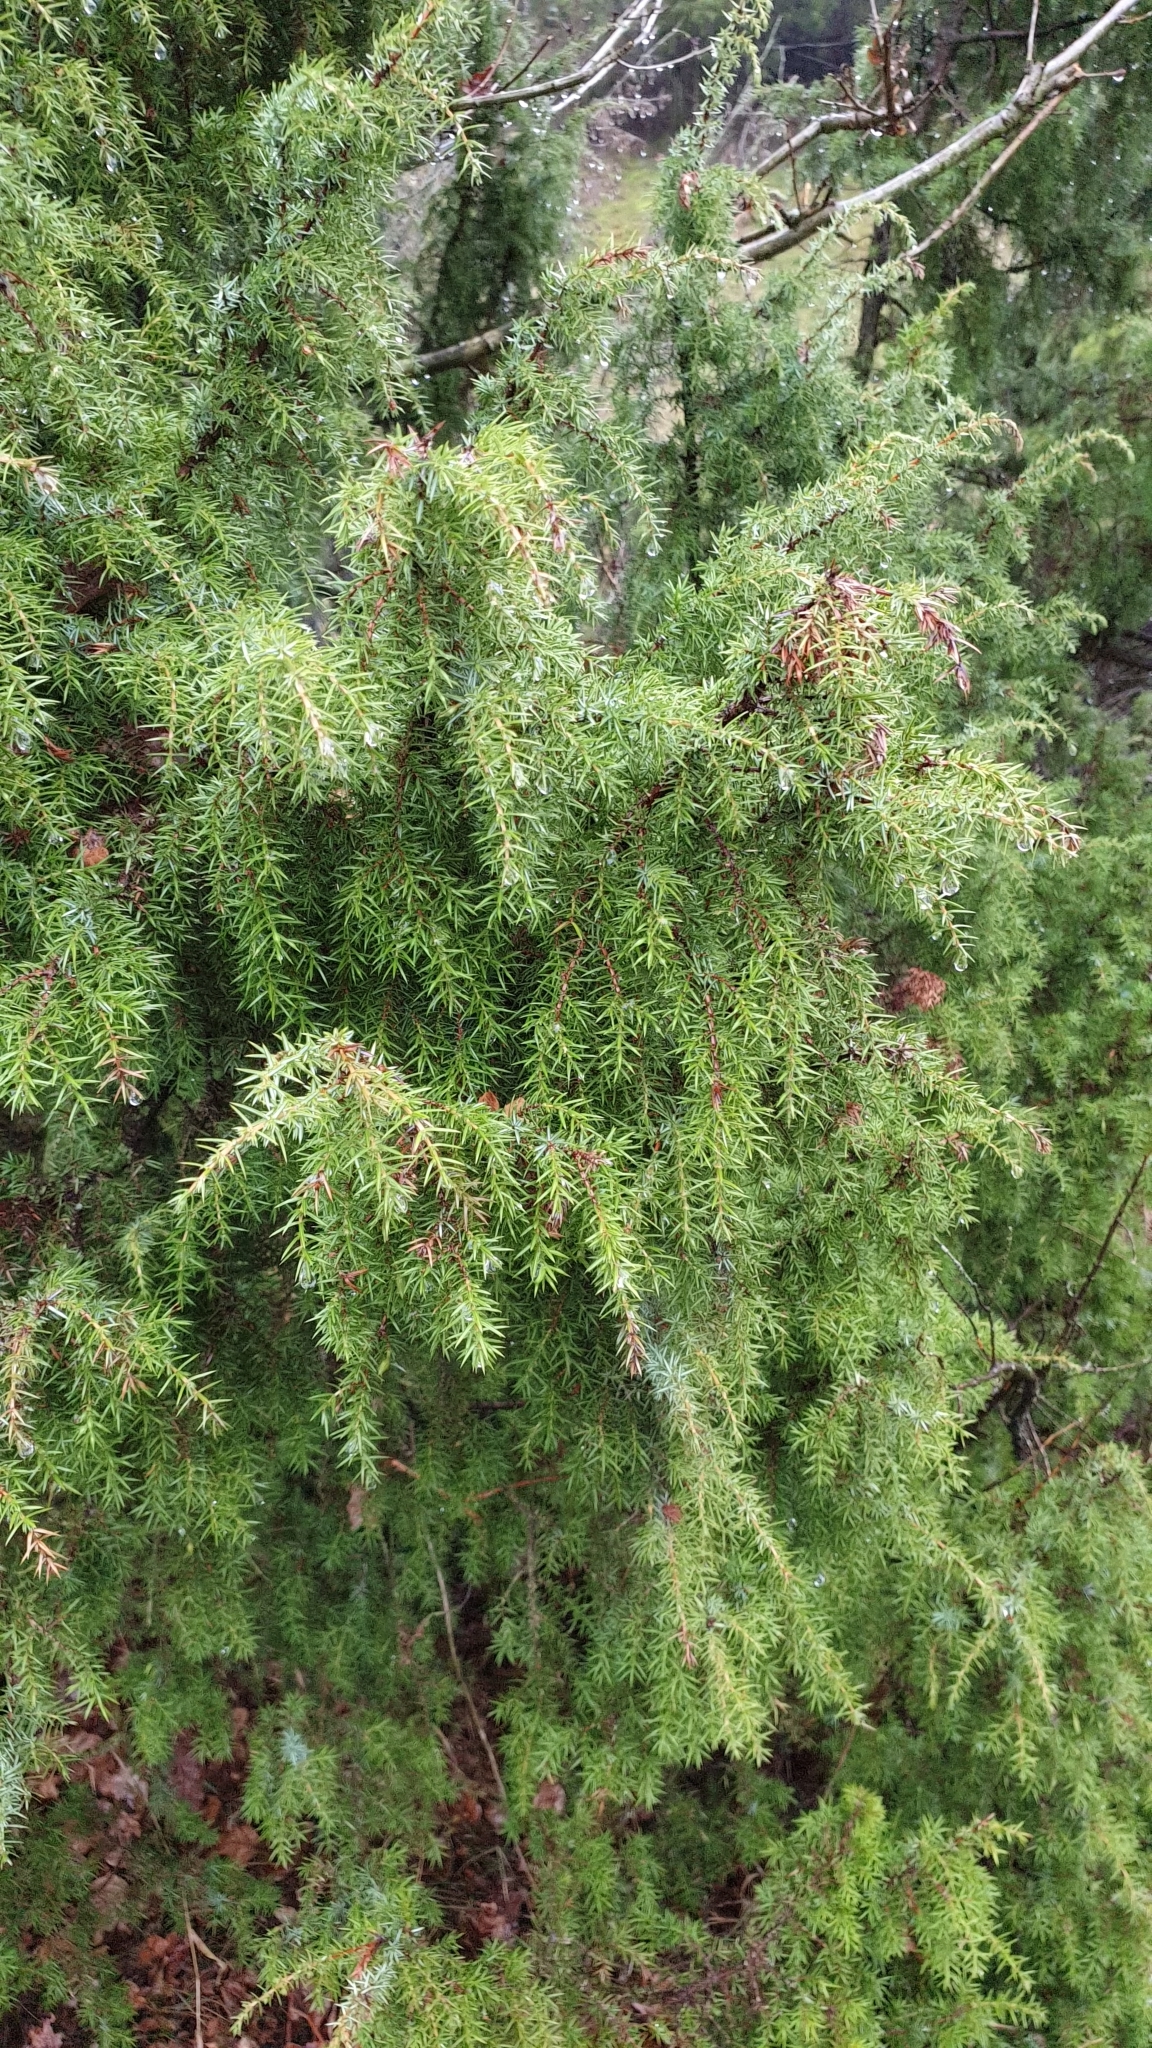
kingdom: Plantae
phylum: Tracheophyta
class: Pinopsida
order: Pinales
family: Cupressaceae
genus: Juniperus
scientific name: Juniperus communis
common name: Common juniper
